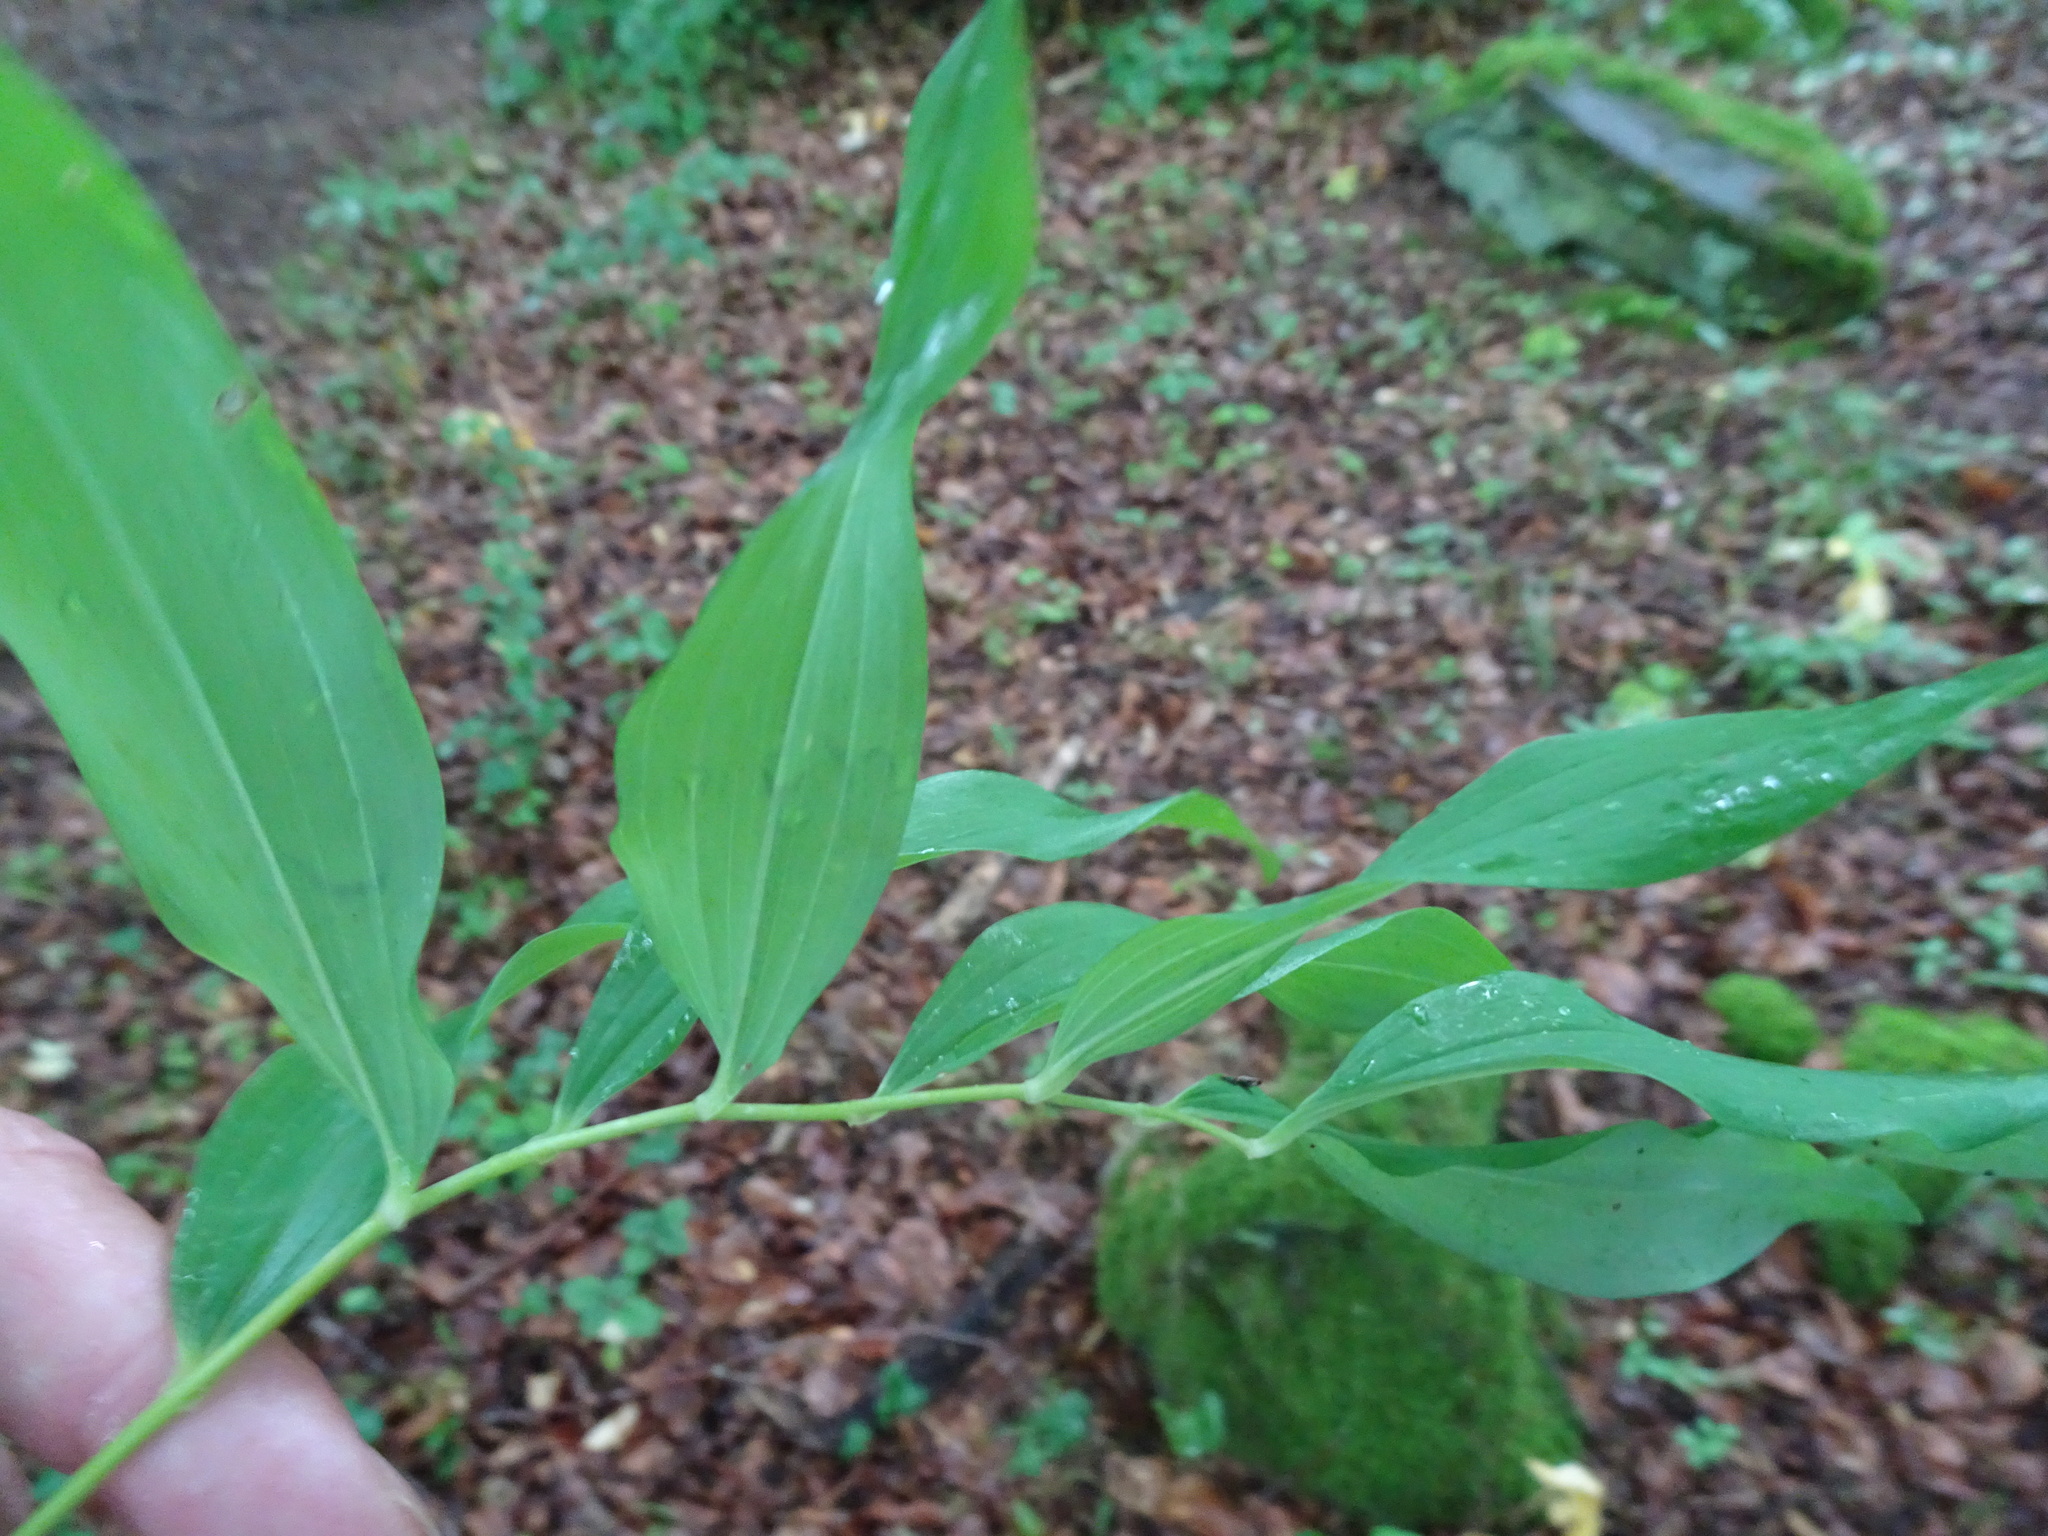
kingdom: Plantae
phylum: Tracheophyta
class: Liliopsida
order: Asparagales
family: Asparagaceae
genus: Polygonatum
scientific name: Polygonatum multiflorum
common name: Solomon's-seal
